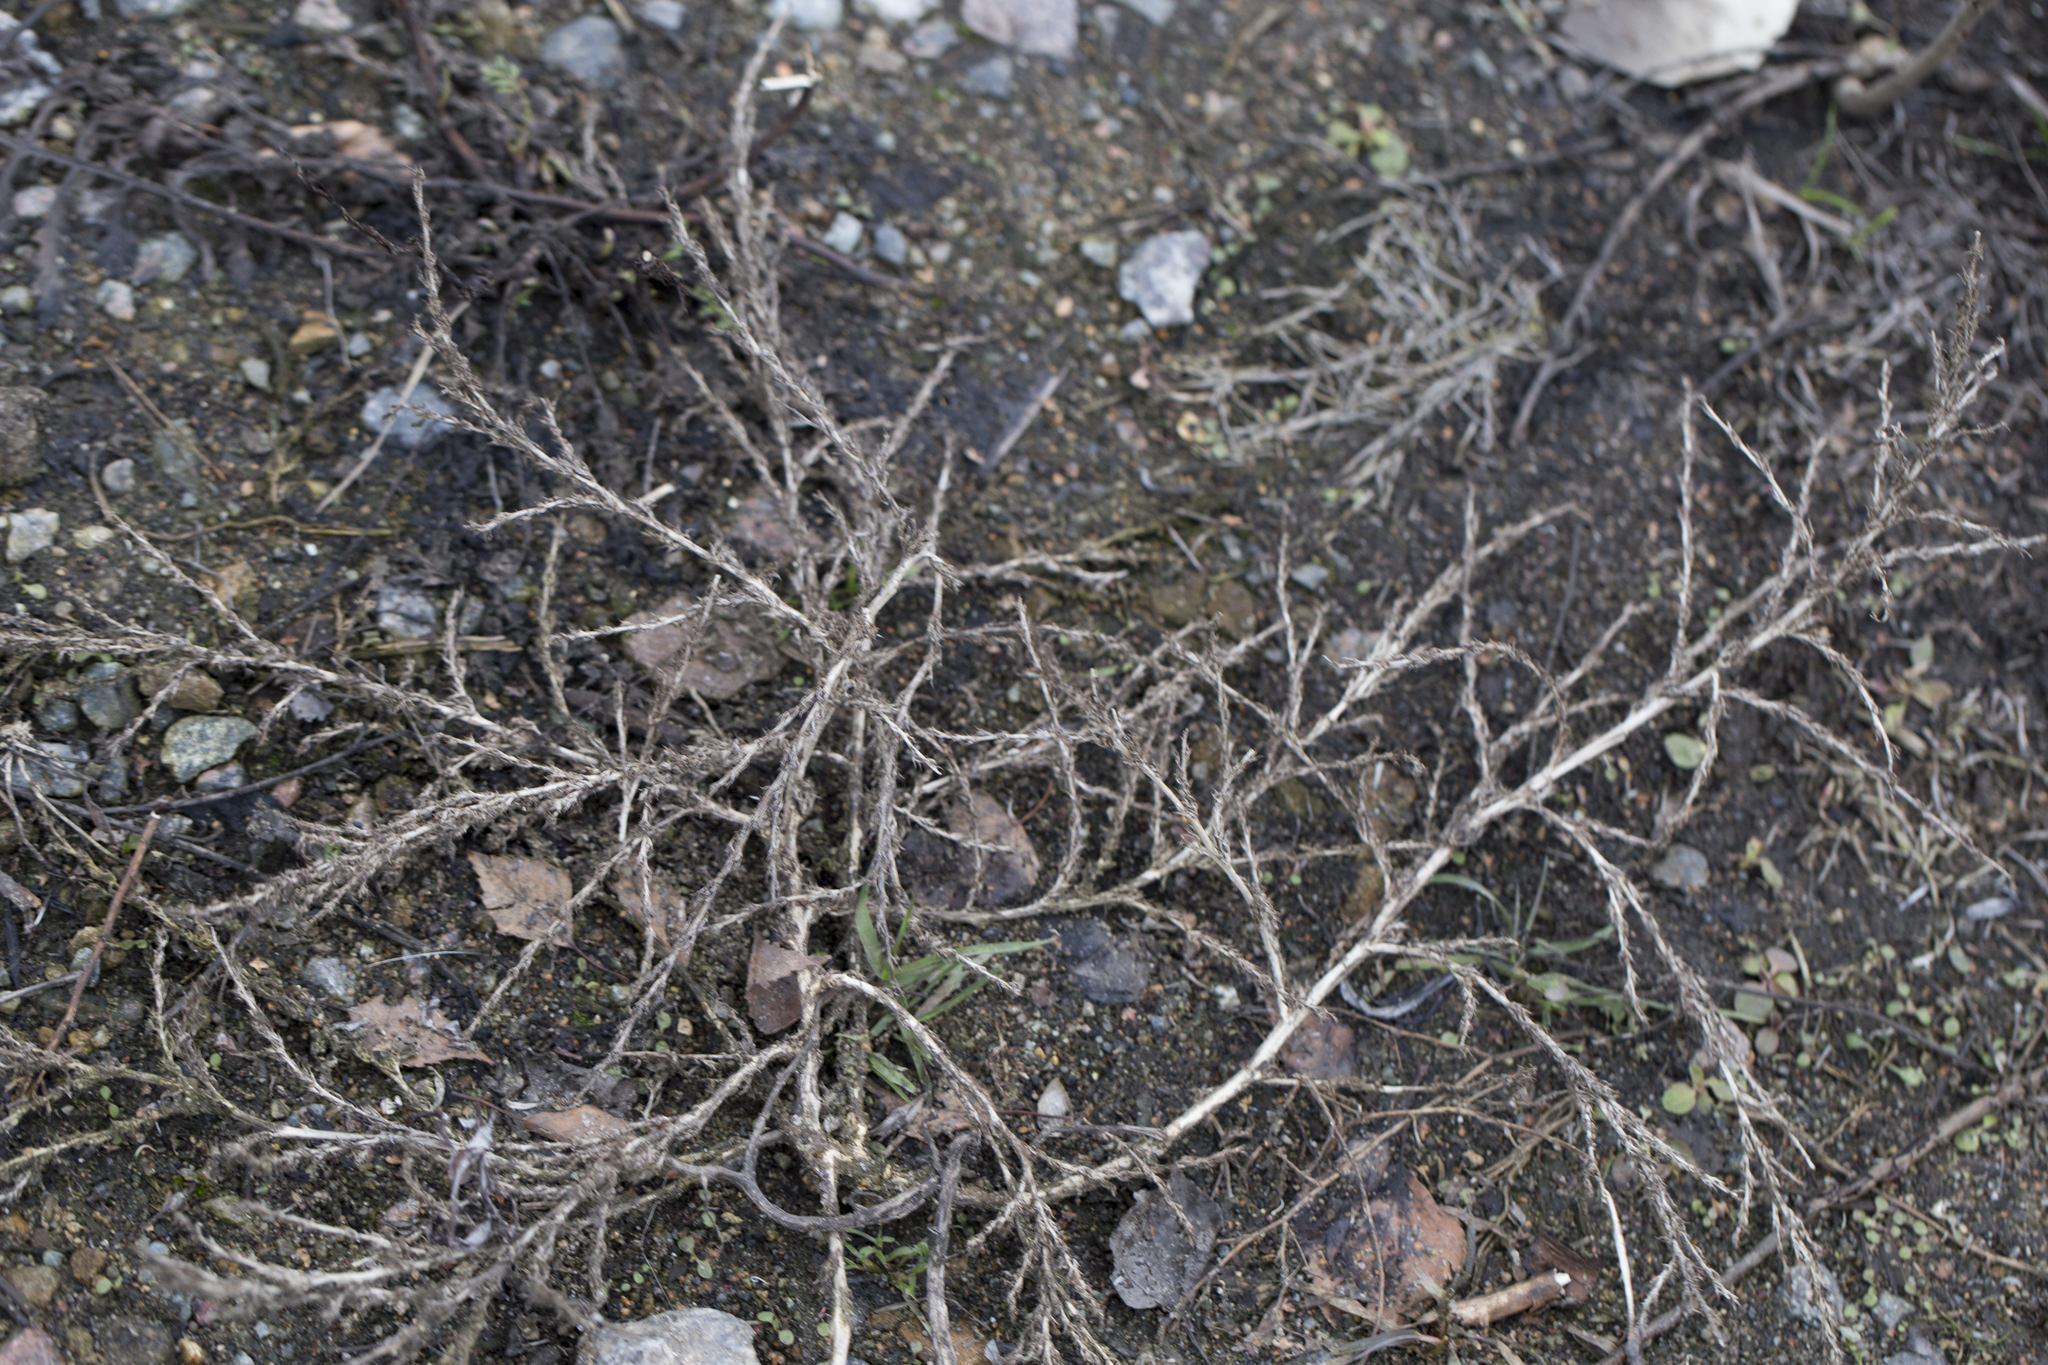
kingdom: Plantae
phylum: Tracheophyta
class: Magnoliopsida
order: Caryophyllales
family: Amaranthaceae
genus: Amaranthus
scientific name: Amaranthus albus
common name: White pigweed
